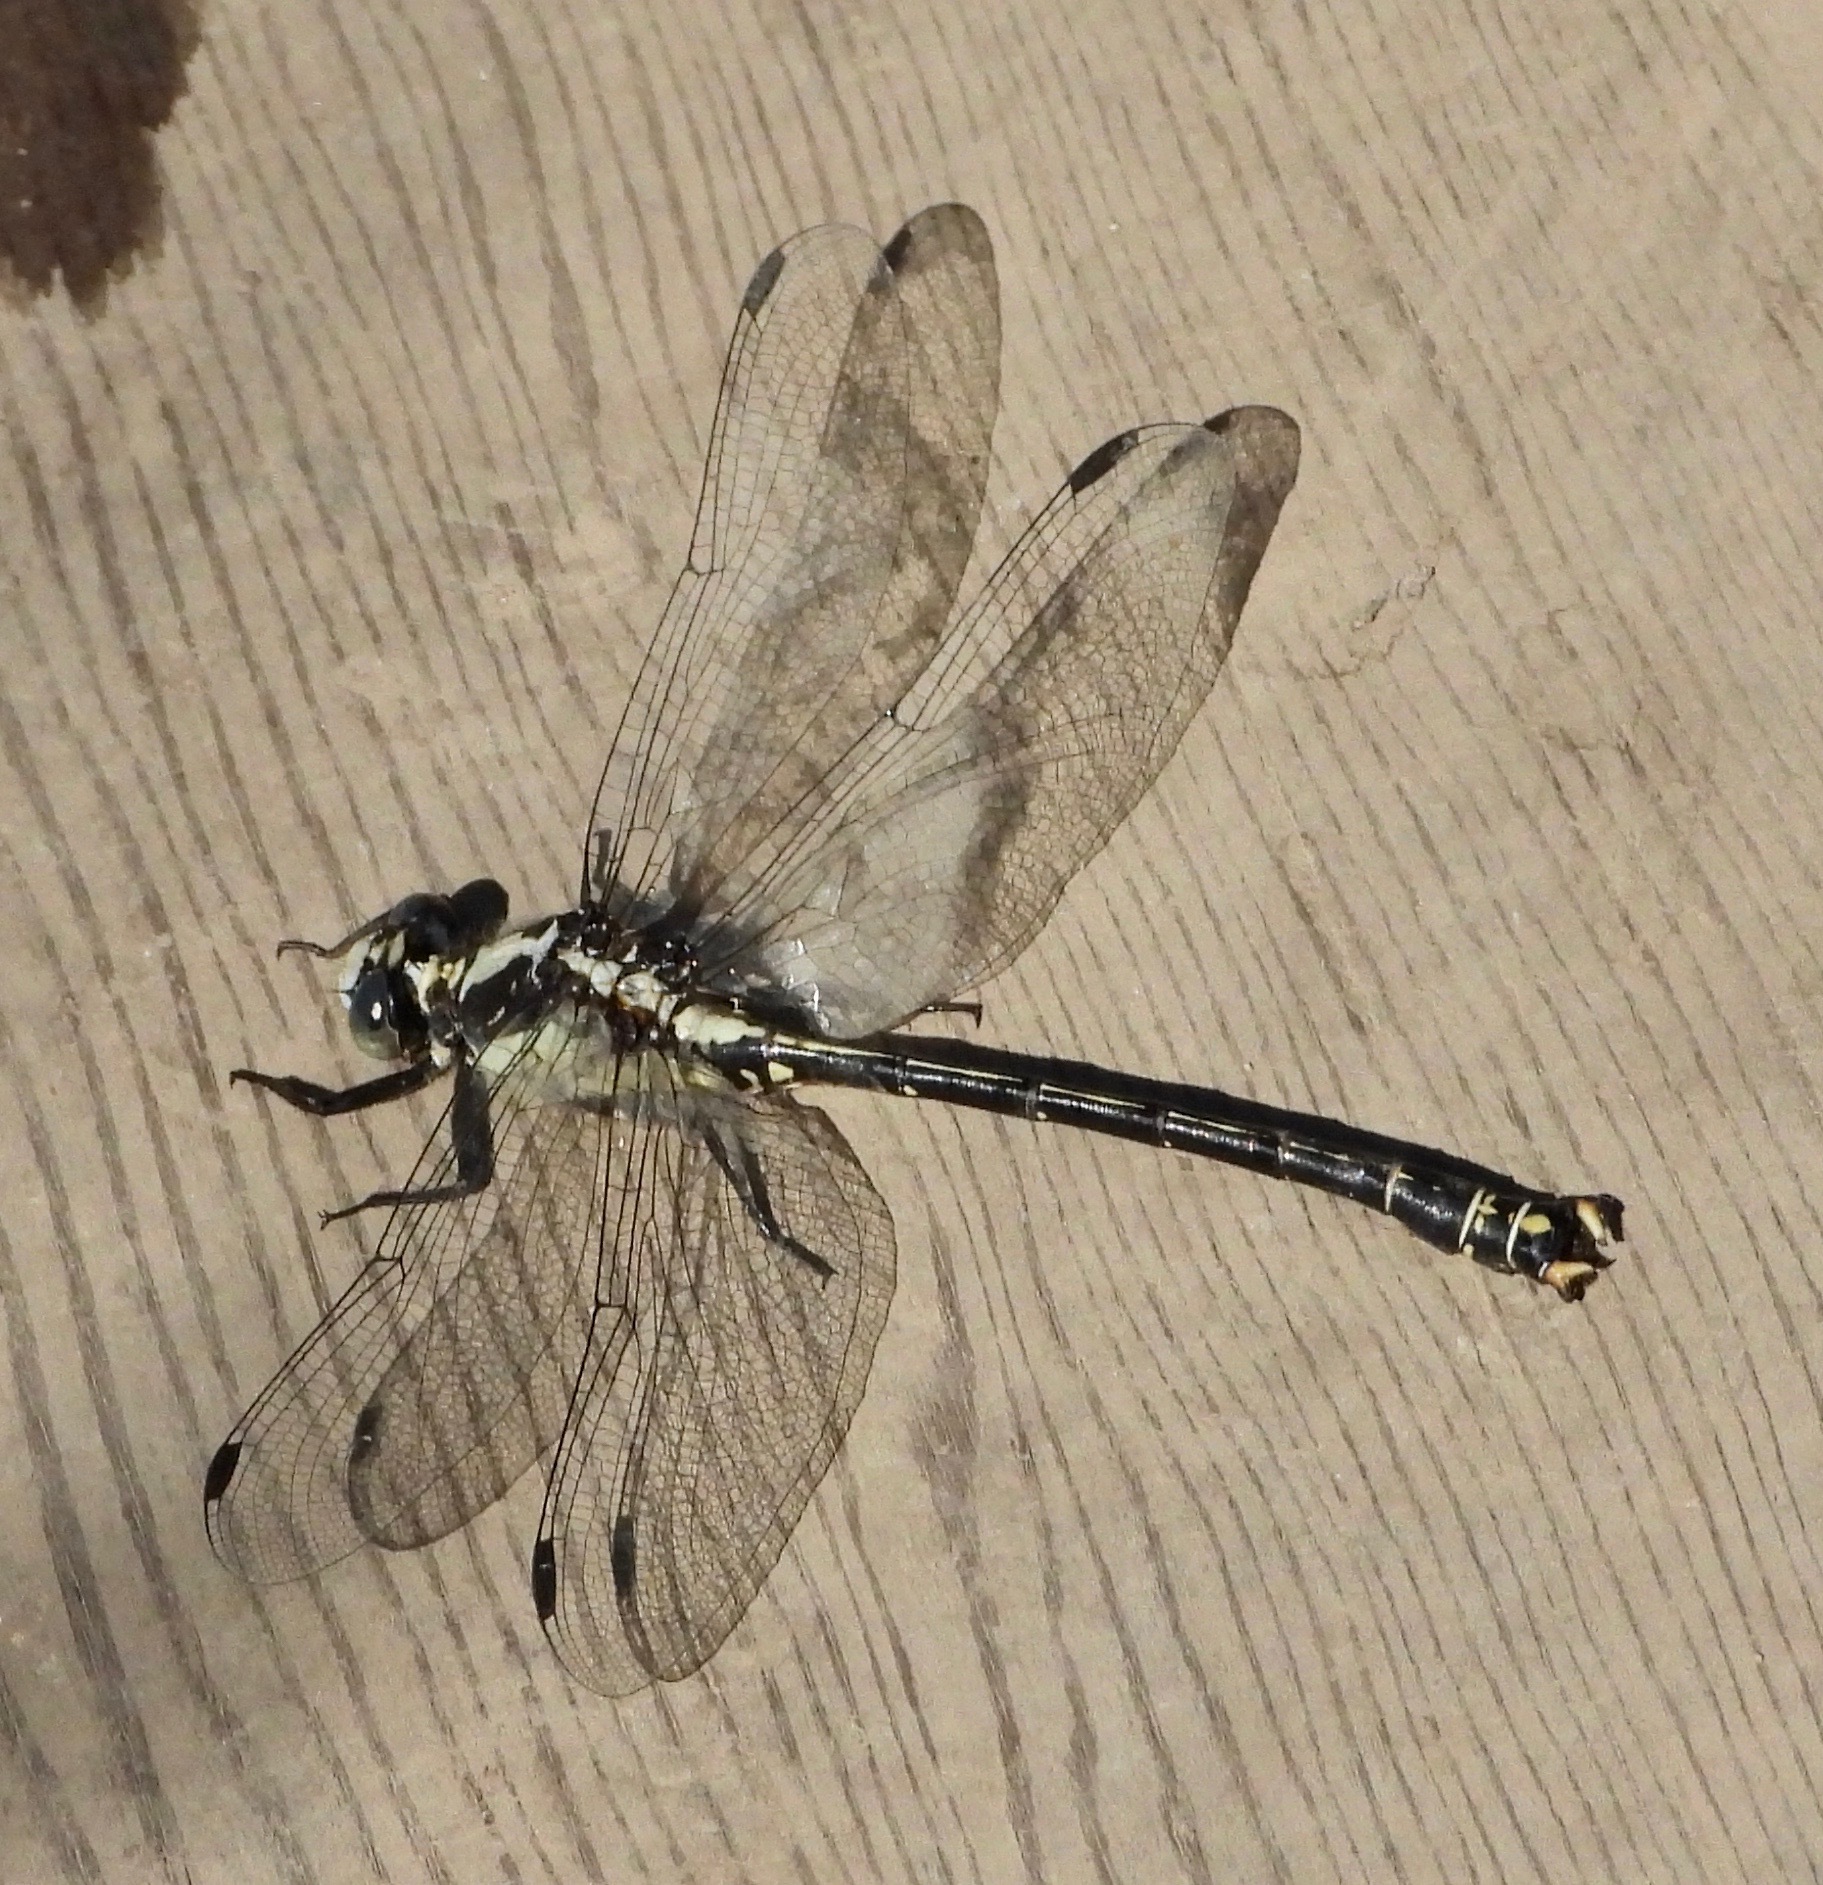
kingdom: Animalia
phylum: Arthropoda
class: Insecta
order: Odonata
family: Gomphidae
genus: Octogomphus
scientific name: Octogomphus specularis
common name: Grappletail
